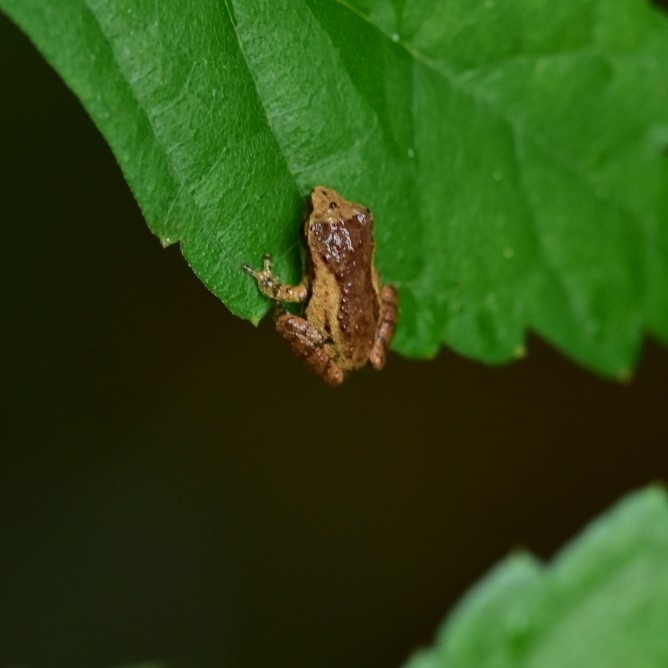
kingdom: Animalia
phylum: Chordata
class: Amphibia
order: Anura
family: Rhacophoridae
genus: Pseudophilautus
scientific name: Pseudophilautus wynaadensis
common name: Dark-eared bush frog
